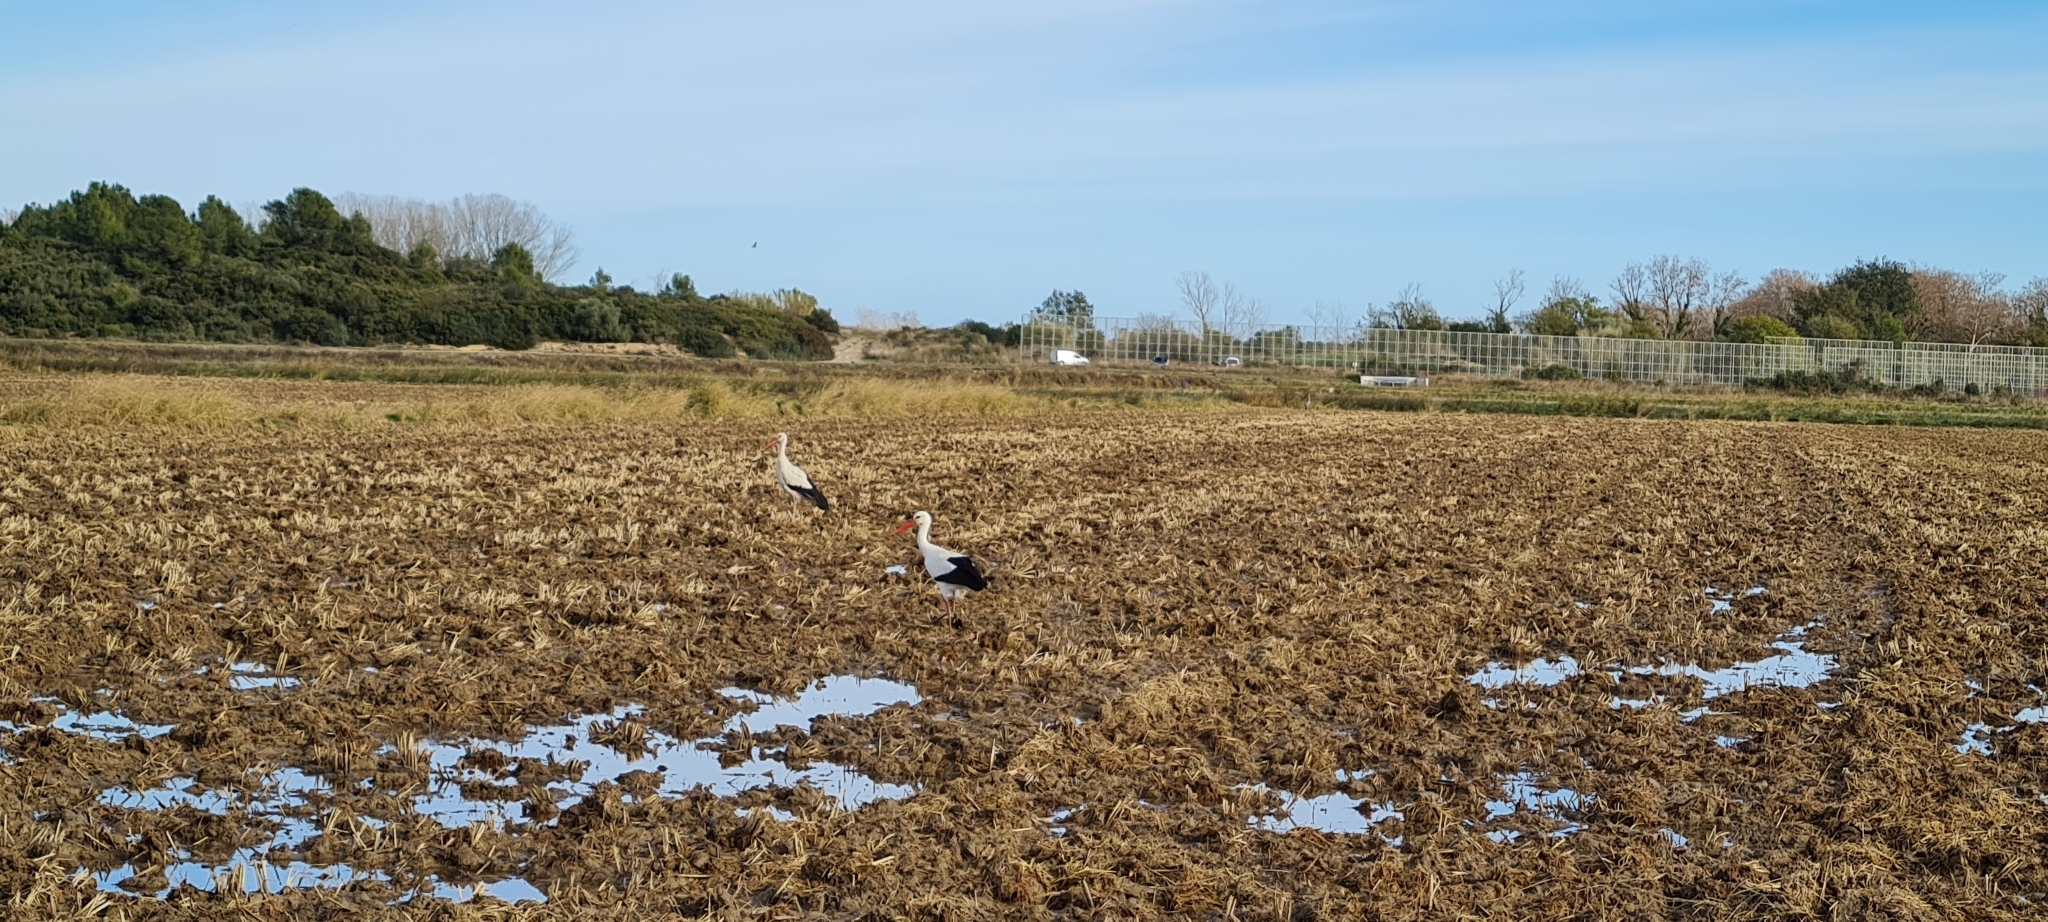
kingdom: Animalia
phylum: Chordata
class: Aves
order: Ciconiiformes
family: Ciconiidae
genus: Ciconia
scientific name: Ciconia ciconia
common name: White stork
